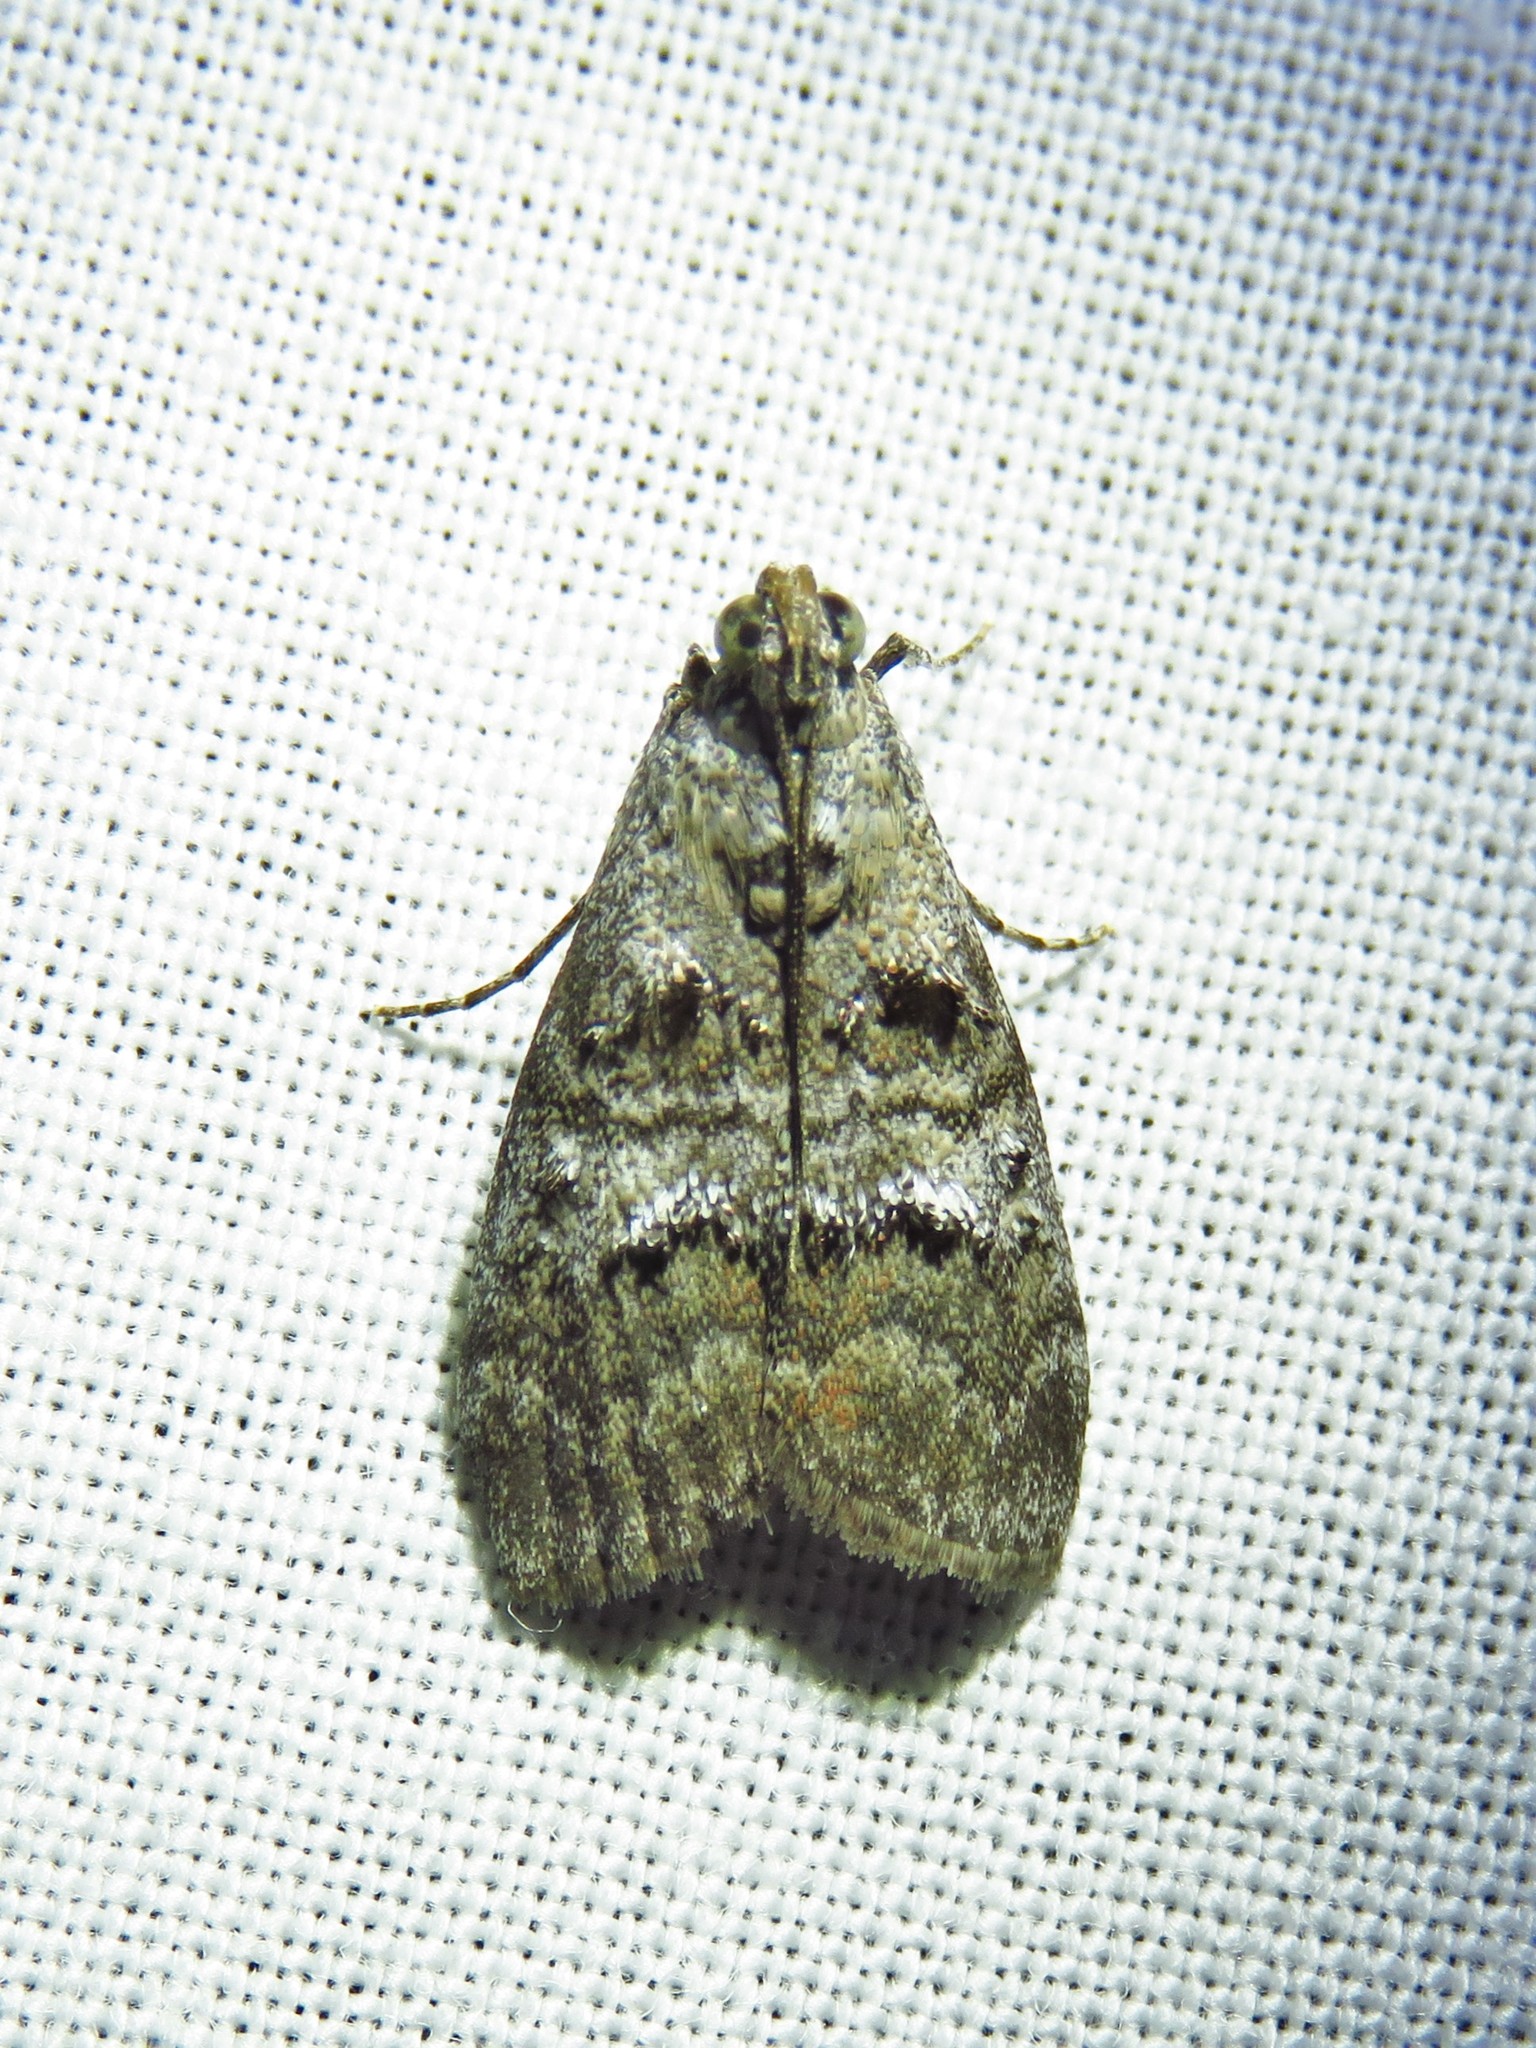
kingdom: Animalia
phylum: Arthropoda
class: Insecta
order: Lepidoptera
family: Pyralidae
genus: Pococera
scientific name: Pococera asperatella
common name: Maple webworm moth
